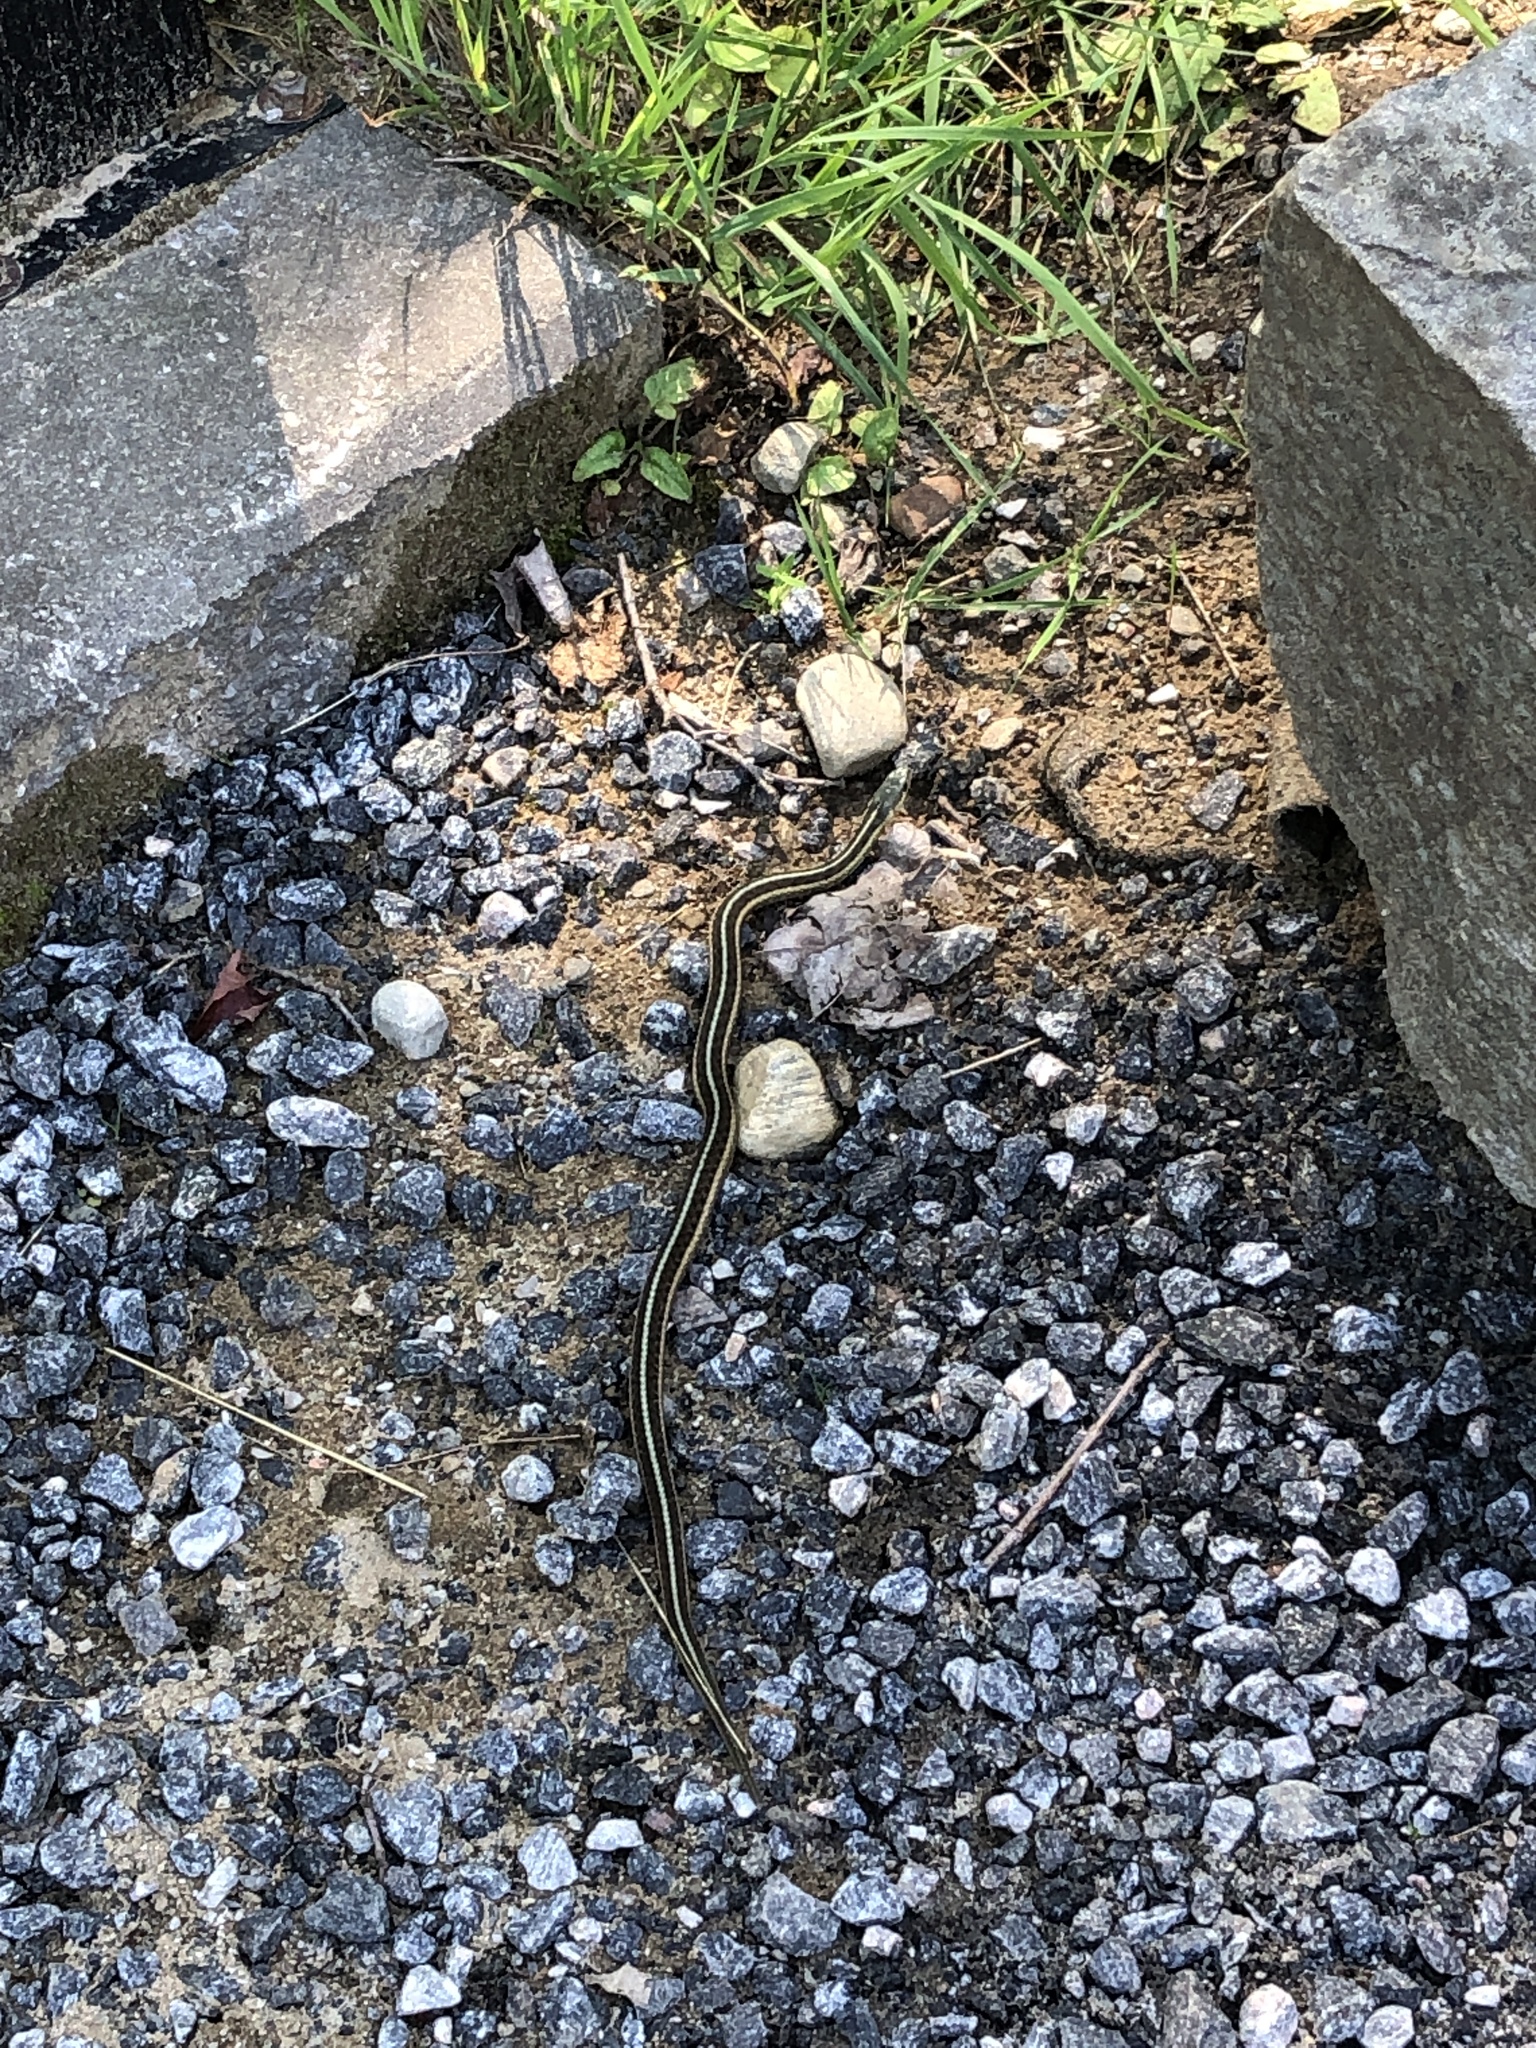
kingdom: Animalia
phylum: Chordata
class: Squamata
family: Colubridae
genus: Thamnophis
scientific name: Thamnophis sirtalis
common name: Common garter snake
